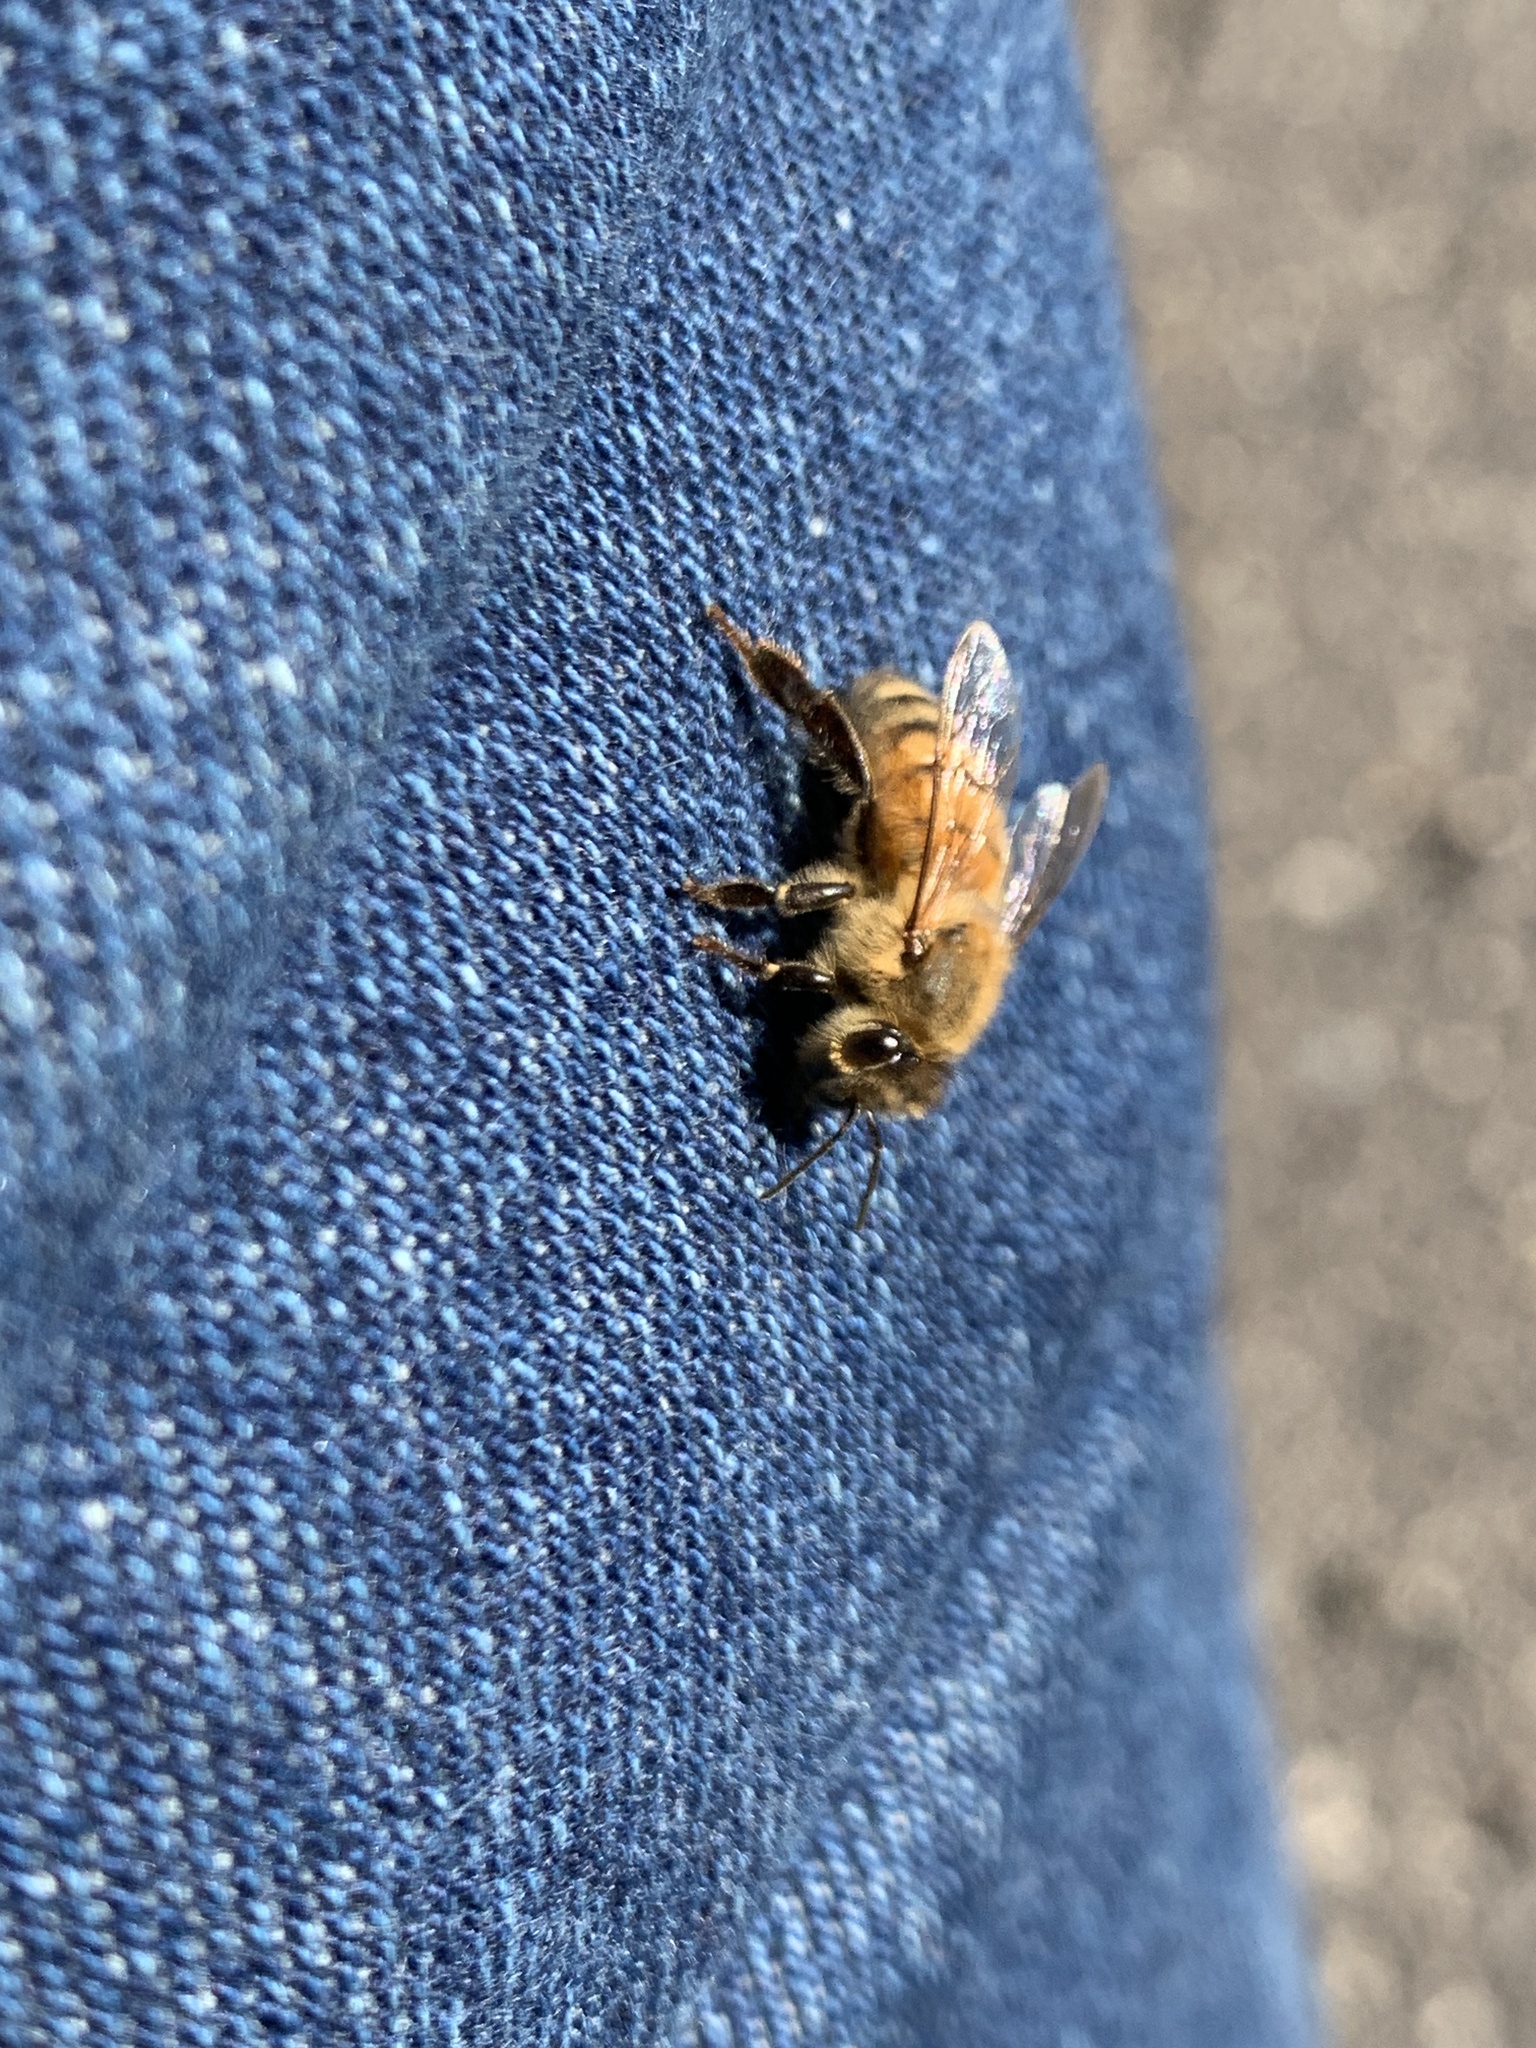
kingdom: Animalia
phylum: Arthropoda
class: Insecta
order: Hymenoptera
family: Apidae
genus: Apis
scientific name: Apis mellifera
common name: Honey bee
